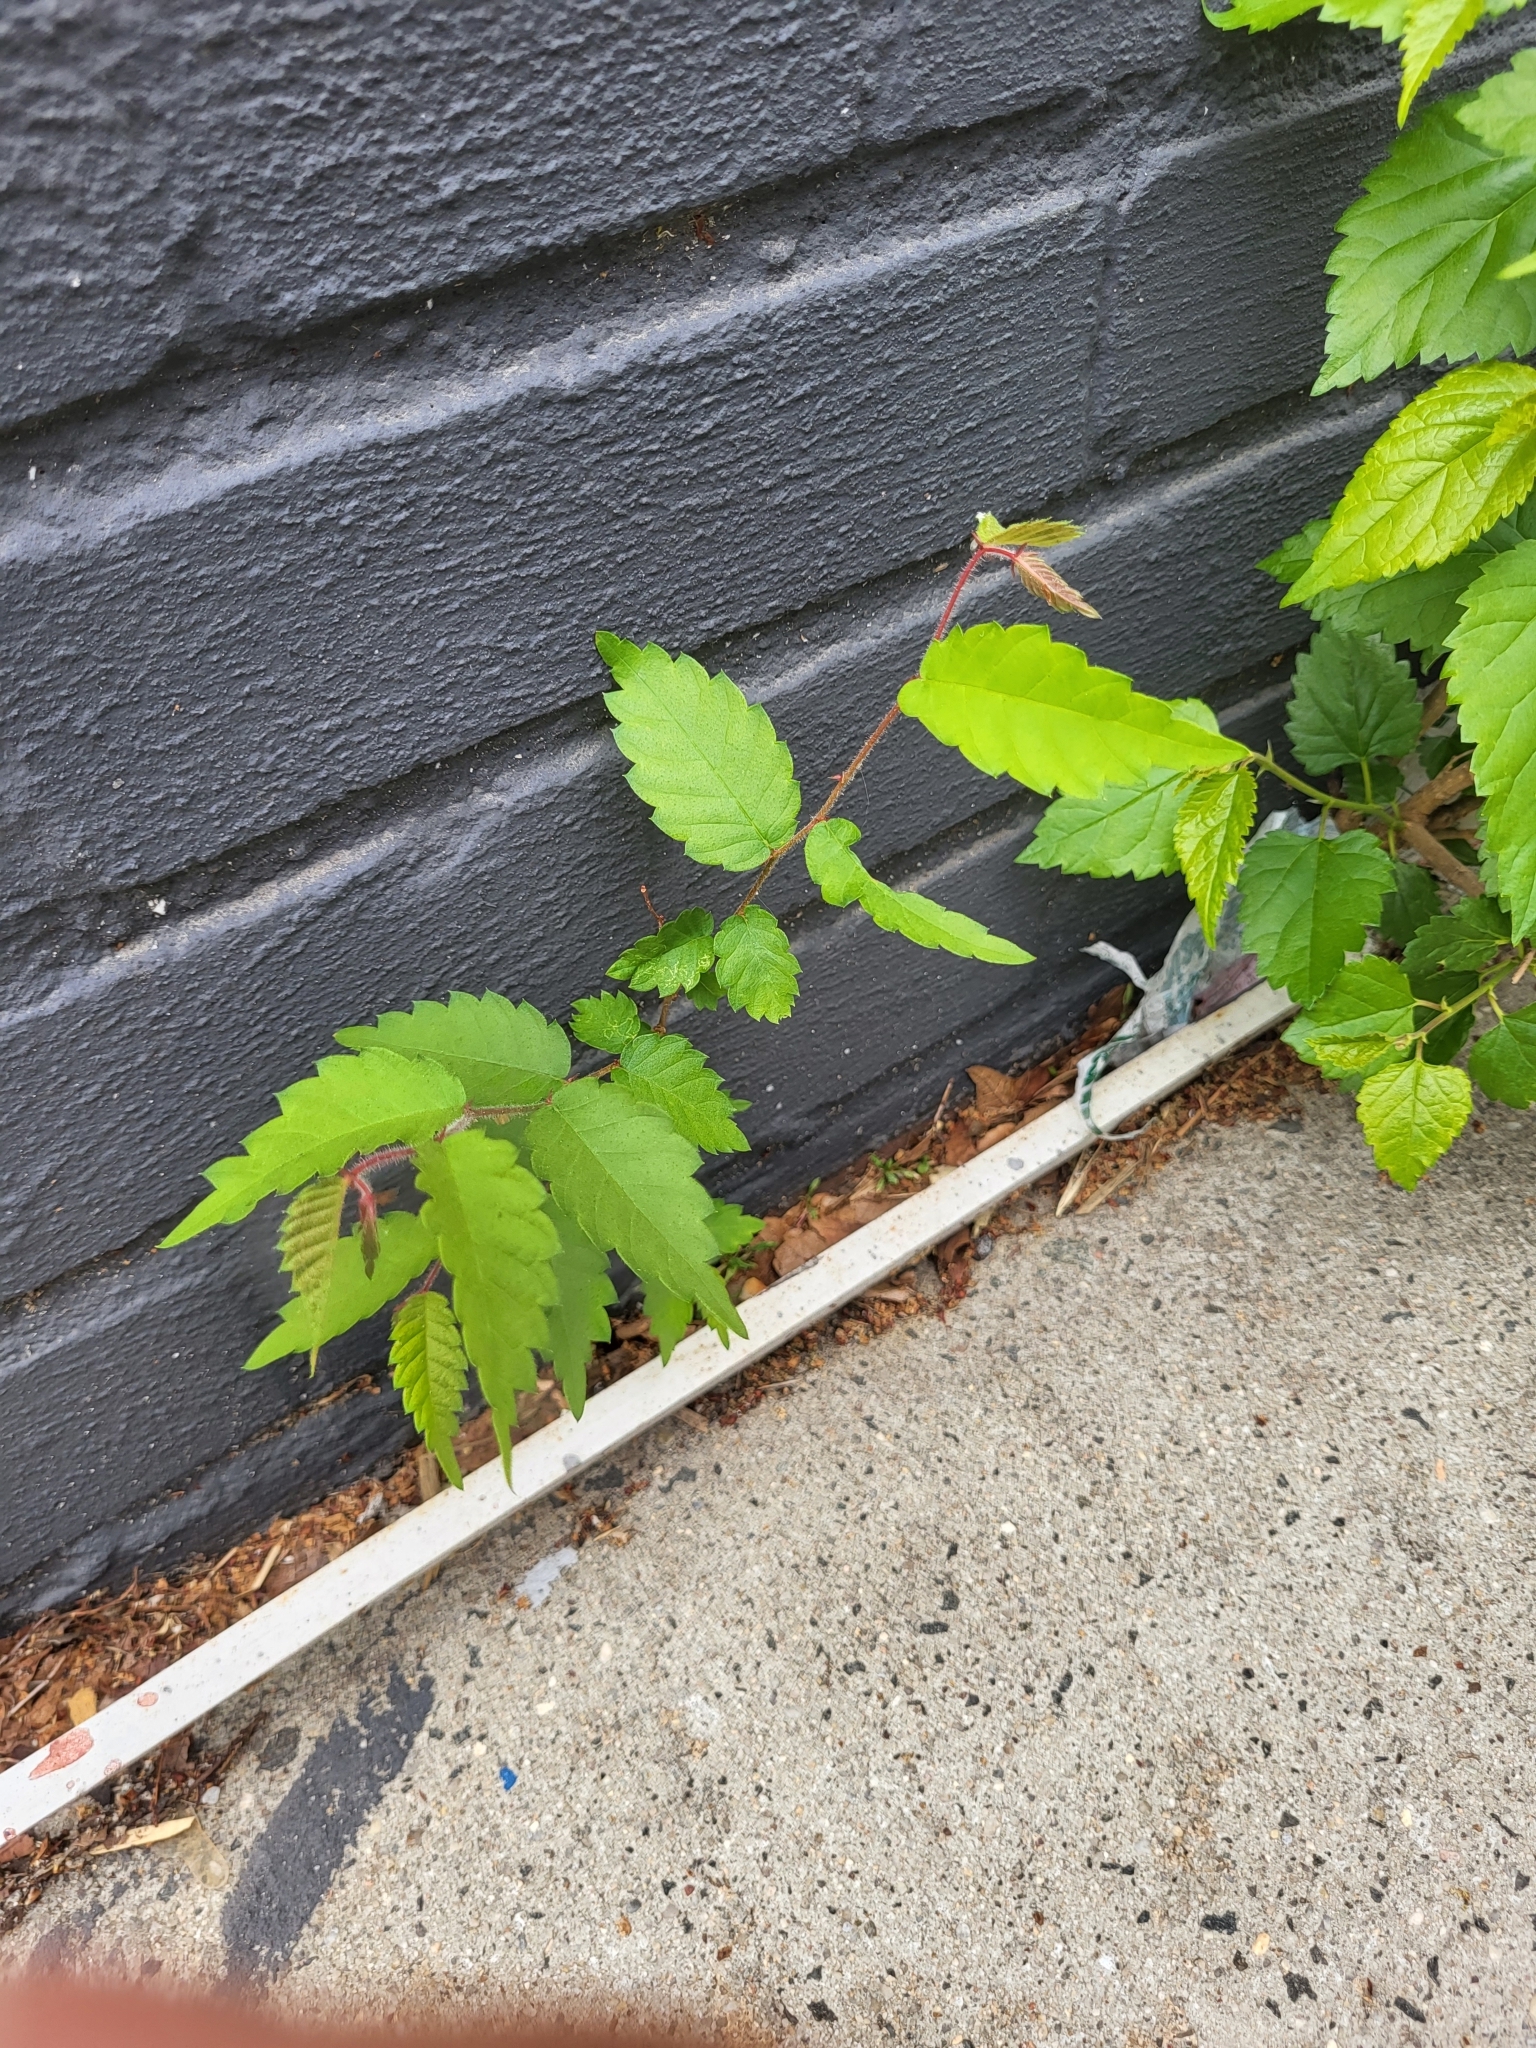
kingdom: Plantae
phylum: Tracheophyta
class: Magnoliopsida
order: Rosales
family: Ulmaceae
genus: Zelkova
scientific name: Zelkova serrata
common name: Japanese zelkova
